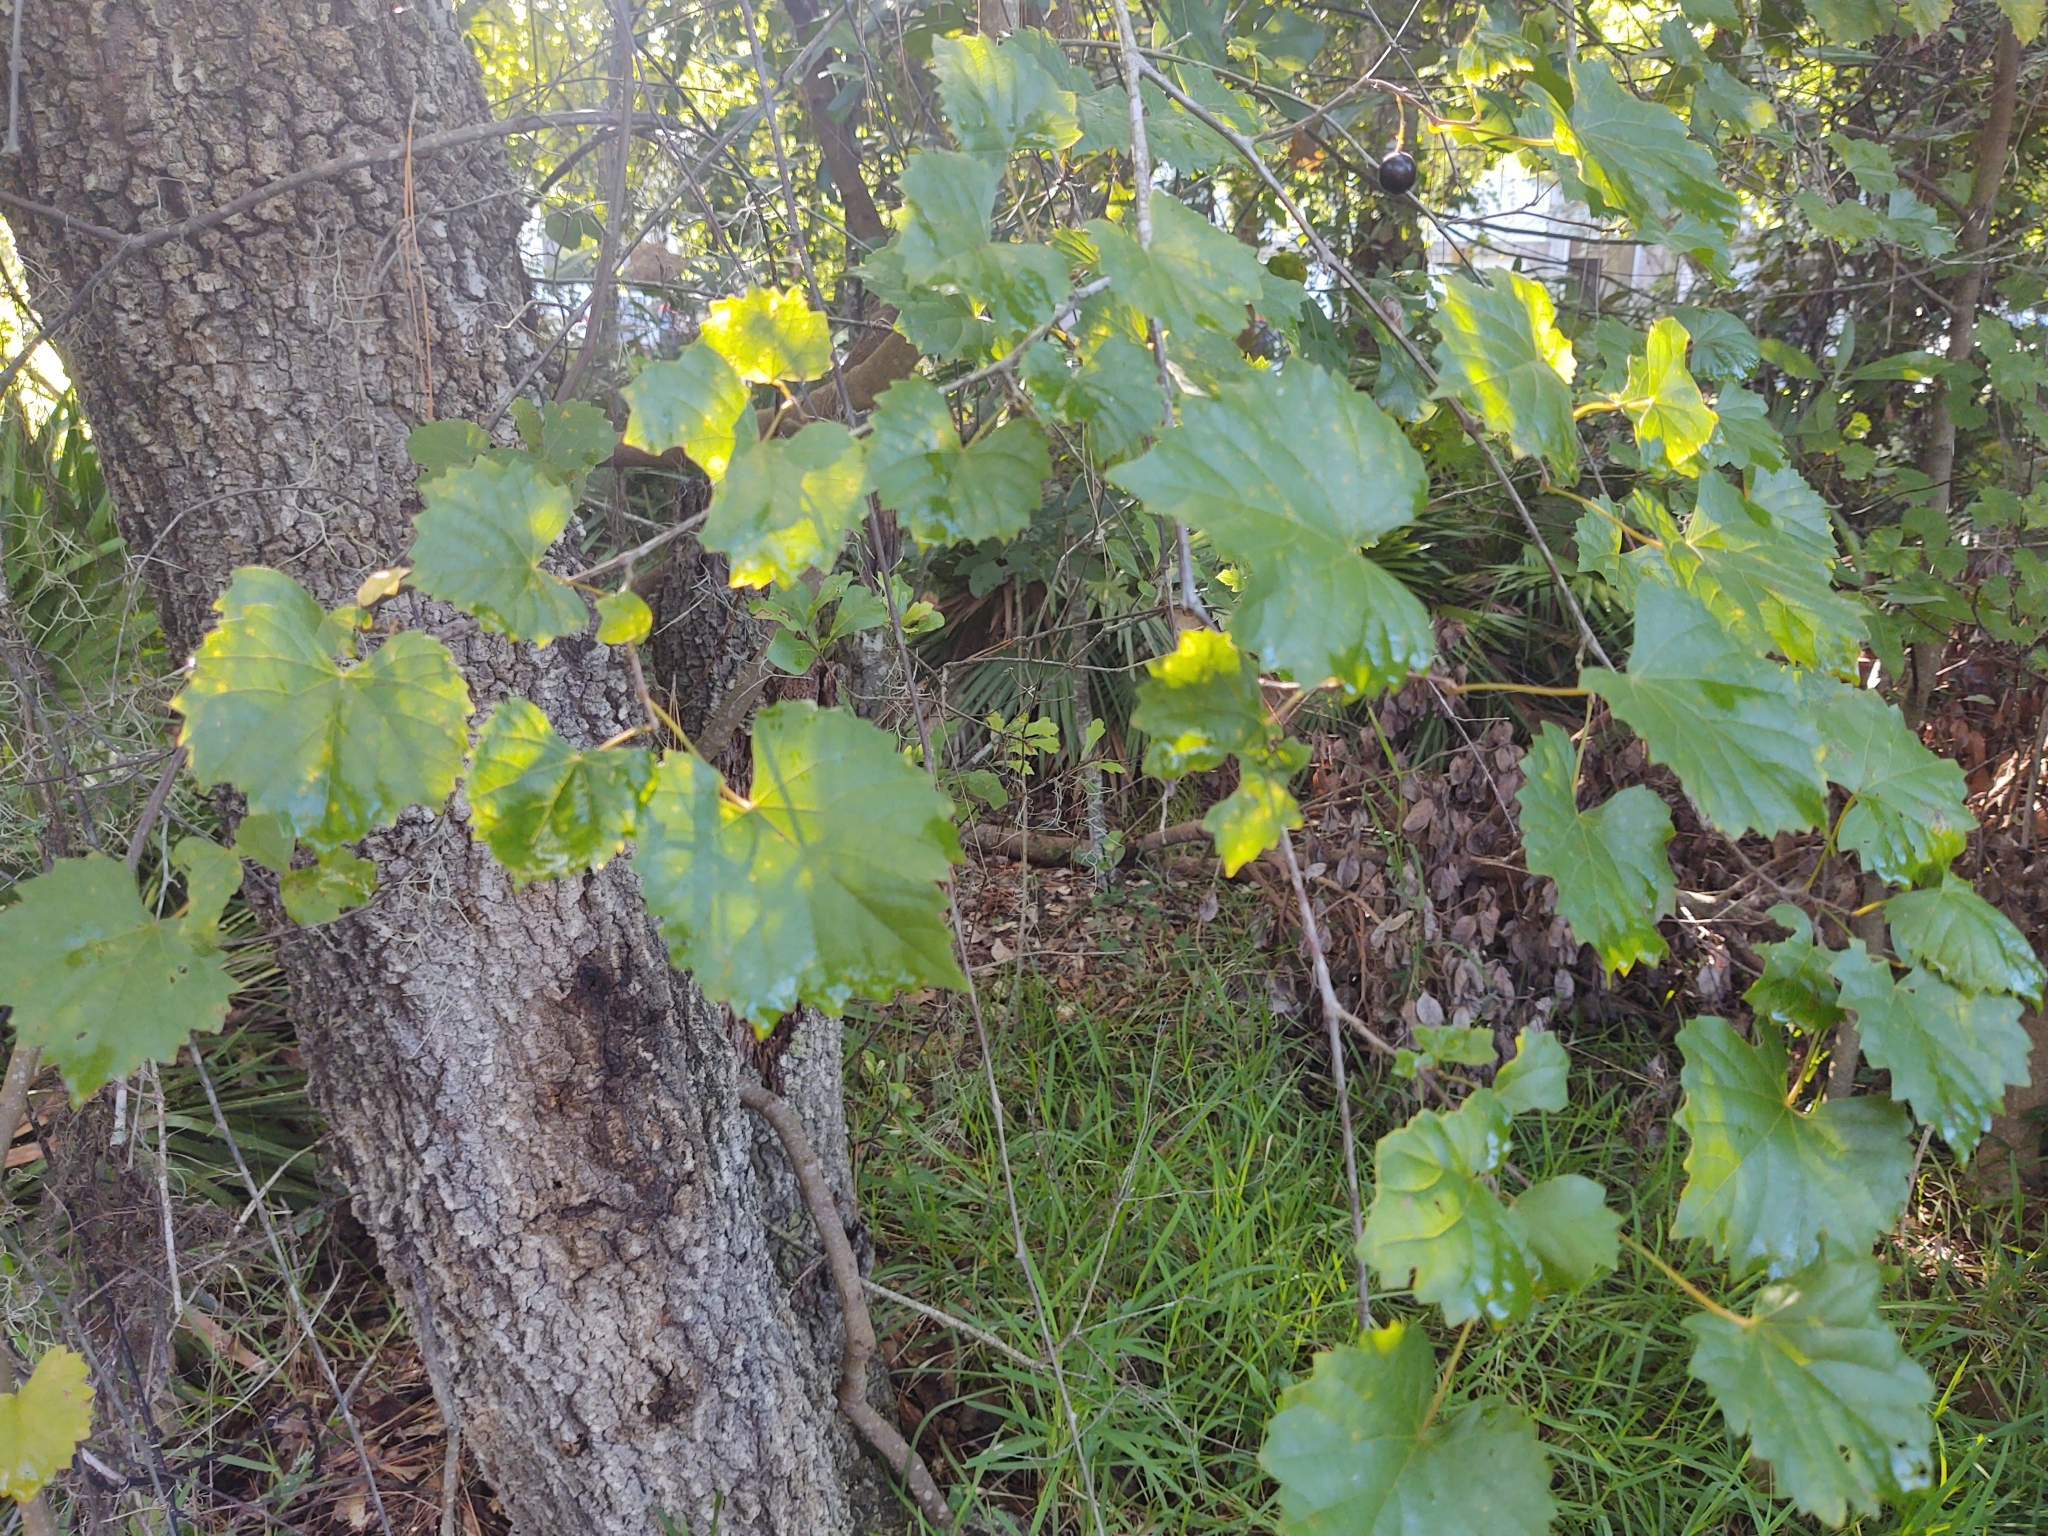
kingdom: Plantae
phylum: Tracheophyta
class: Magnoliopsida
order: Vitales
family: Vitaceae
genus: Vitis
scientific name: Vitis rotundifolia
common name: Muscadine grape
